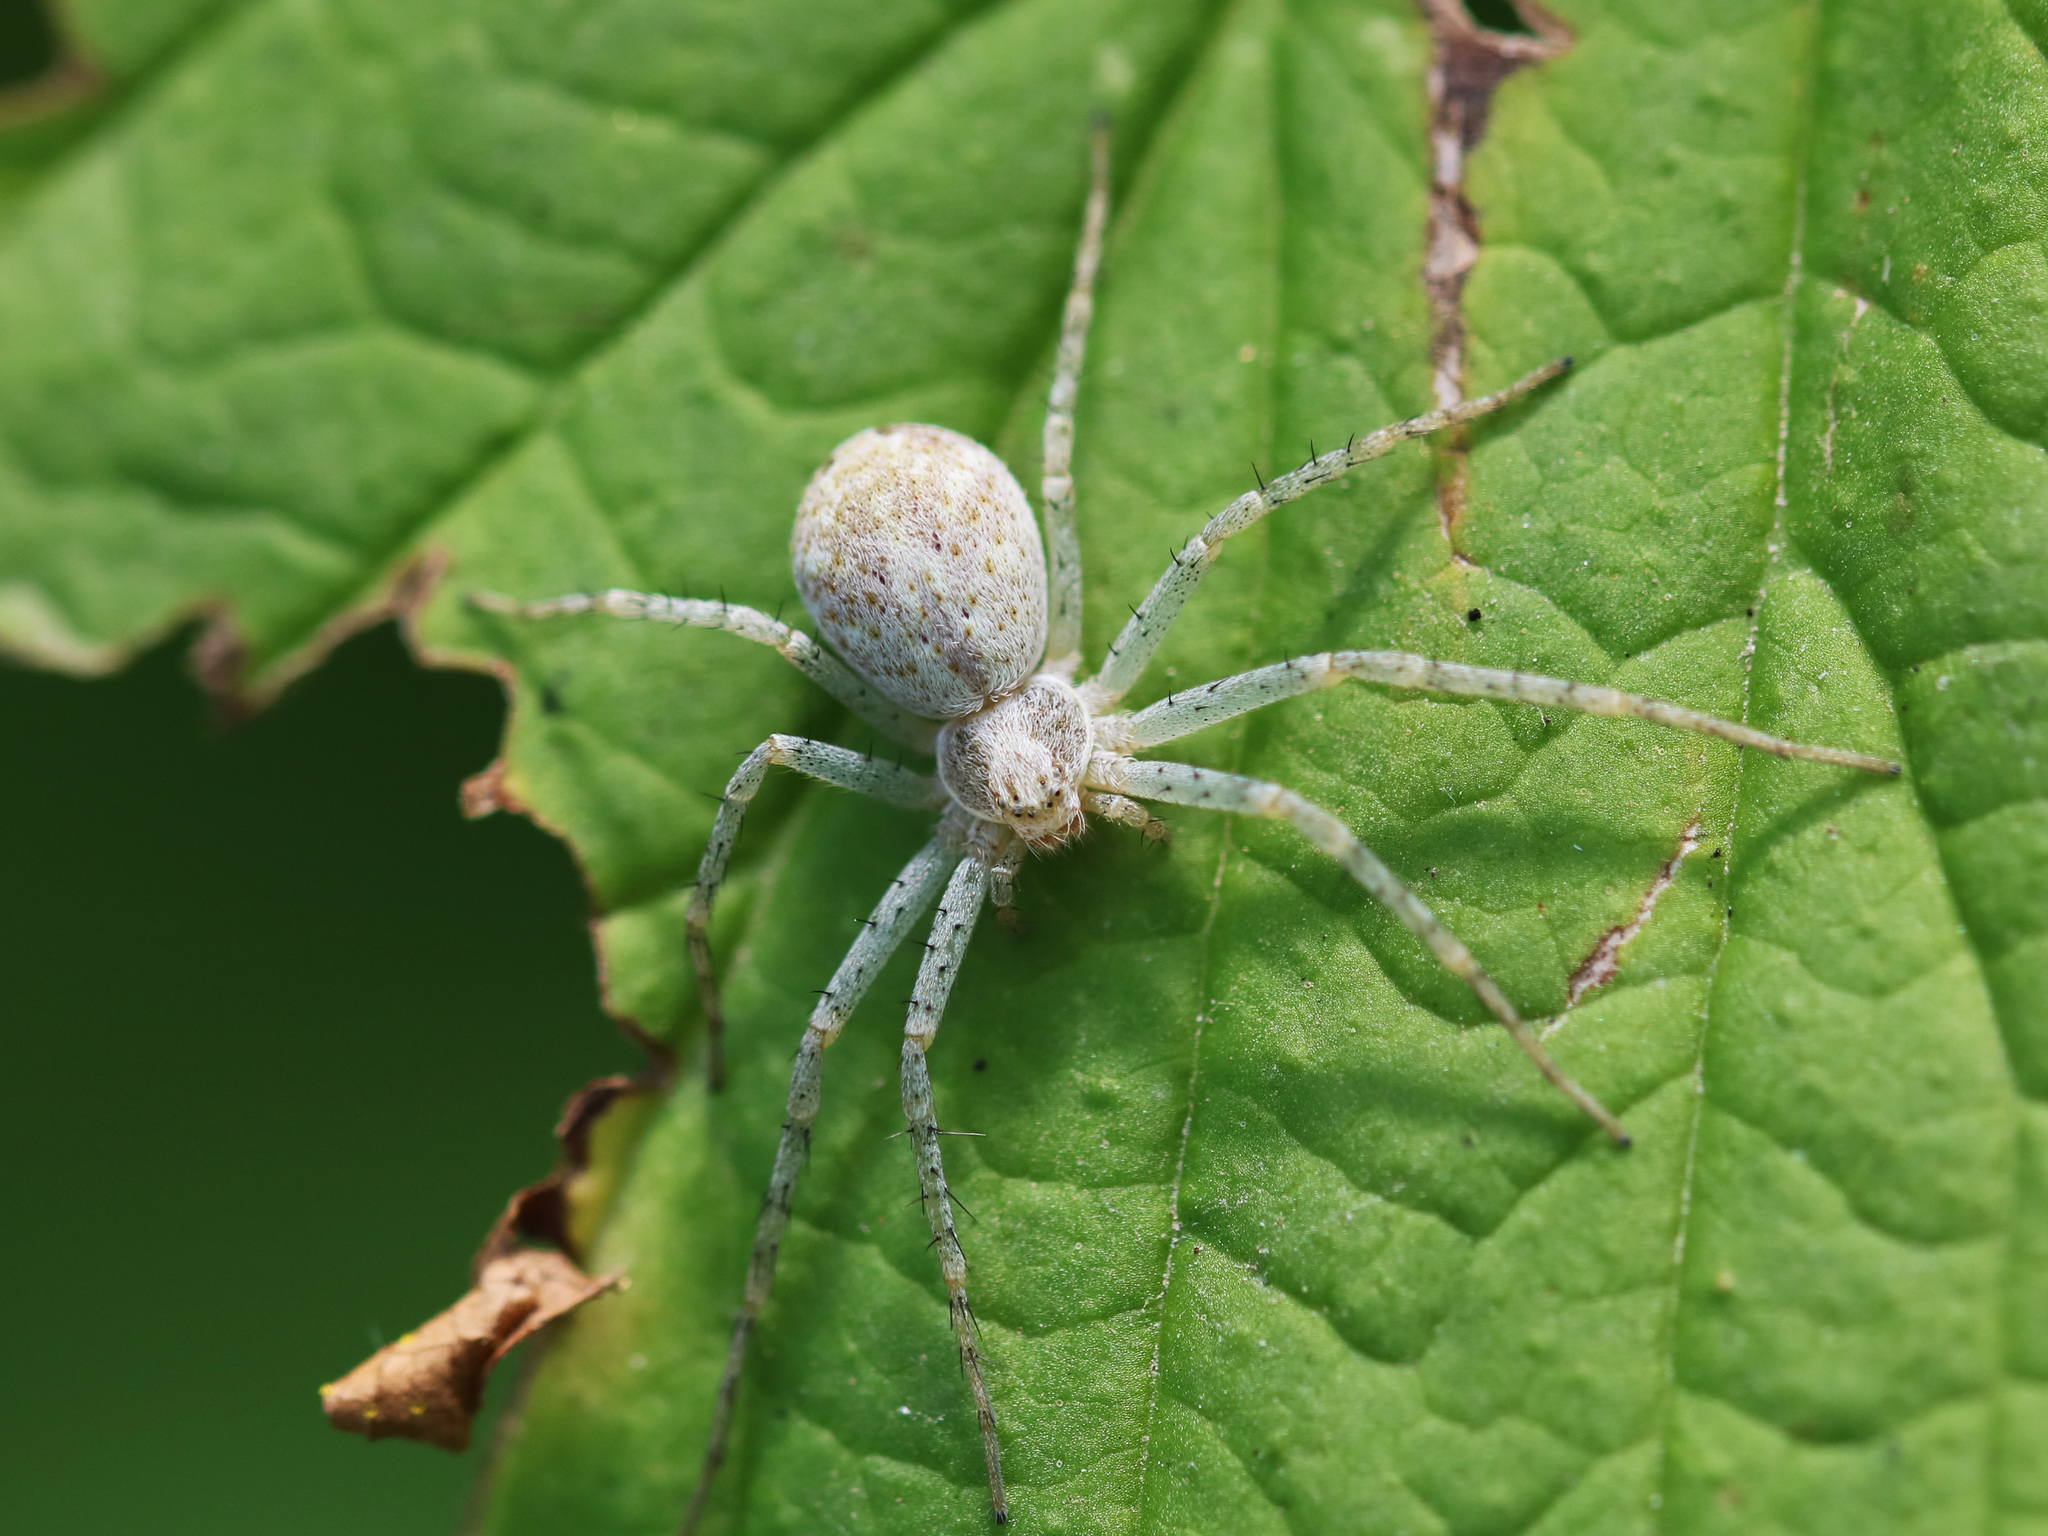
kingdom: Animalia
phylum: Arthropoda
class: Arachnida
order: Araneae
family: Philodromidae
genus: Philodromus
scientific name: Philodromus longipalpis
